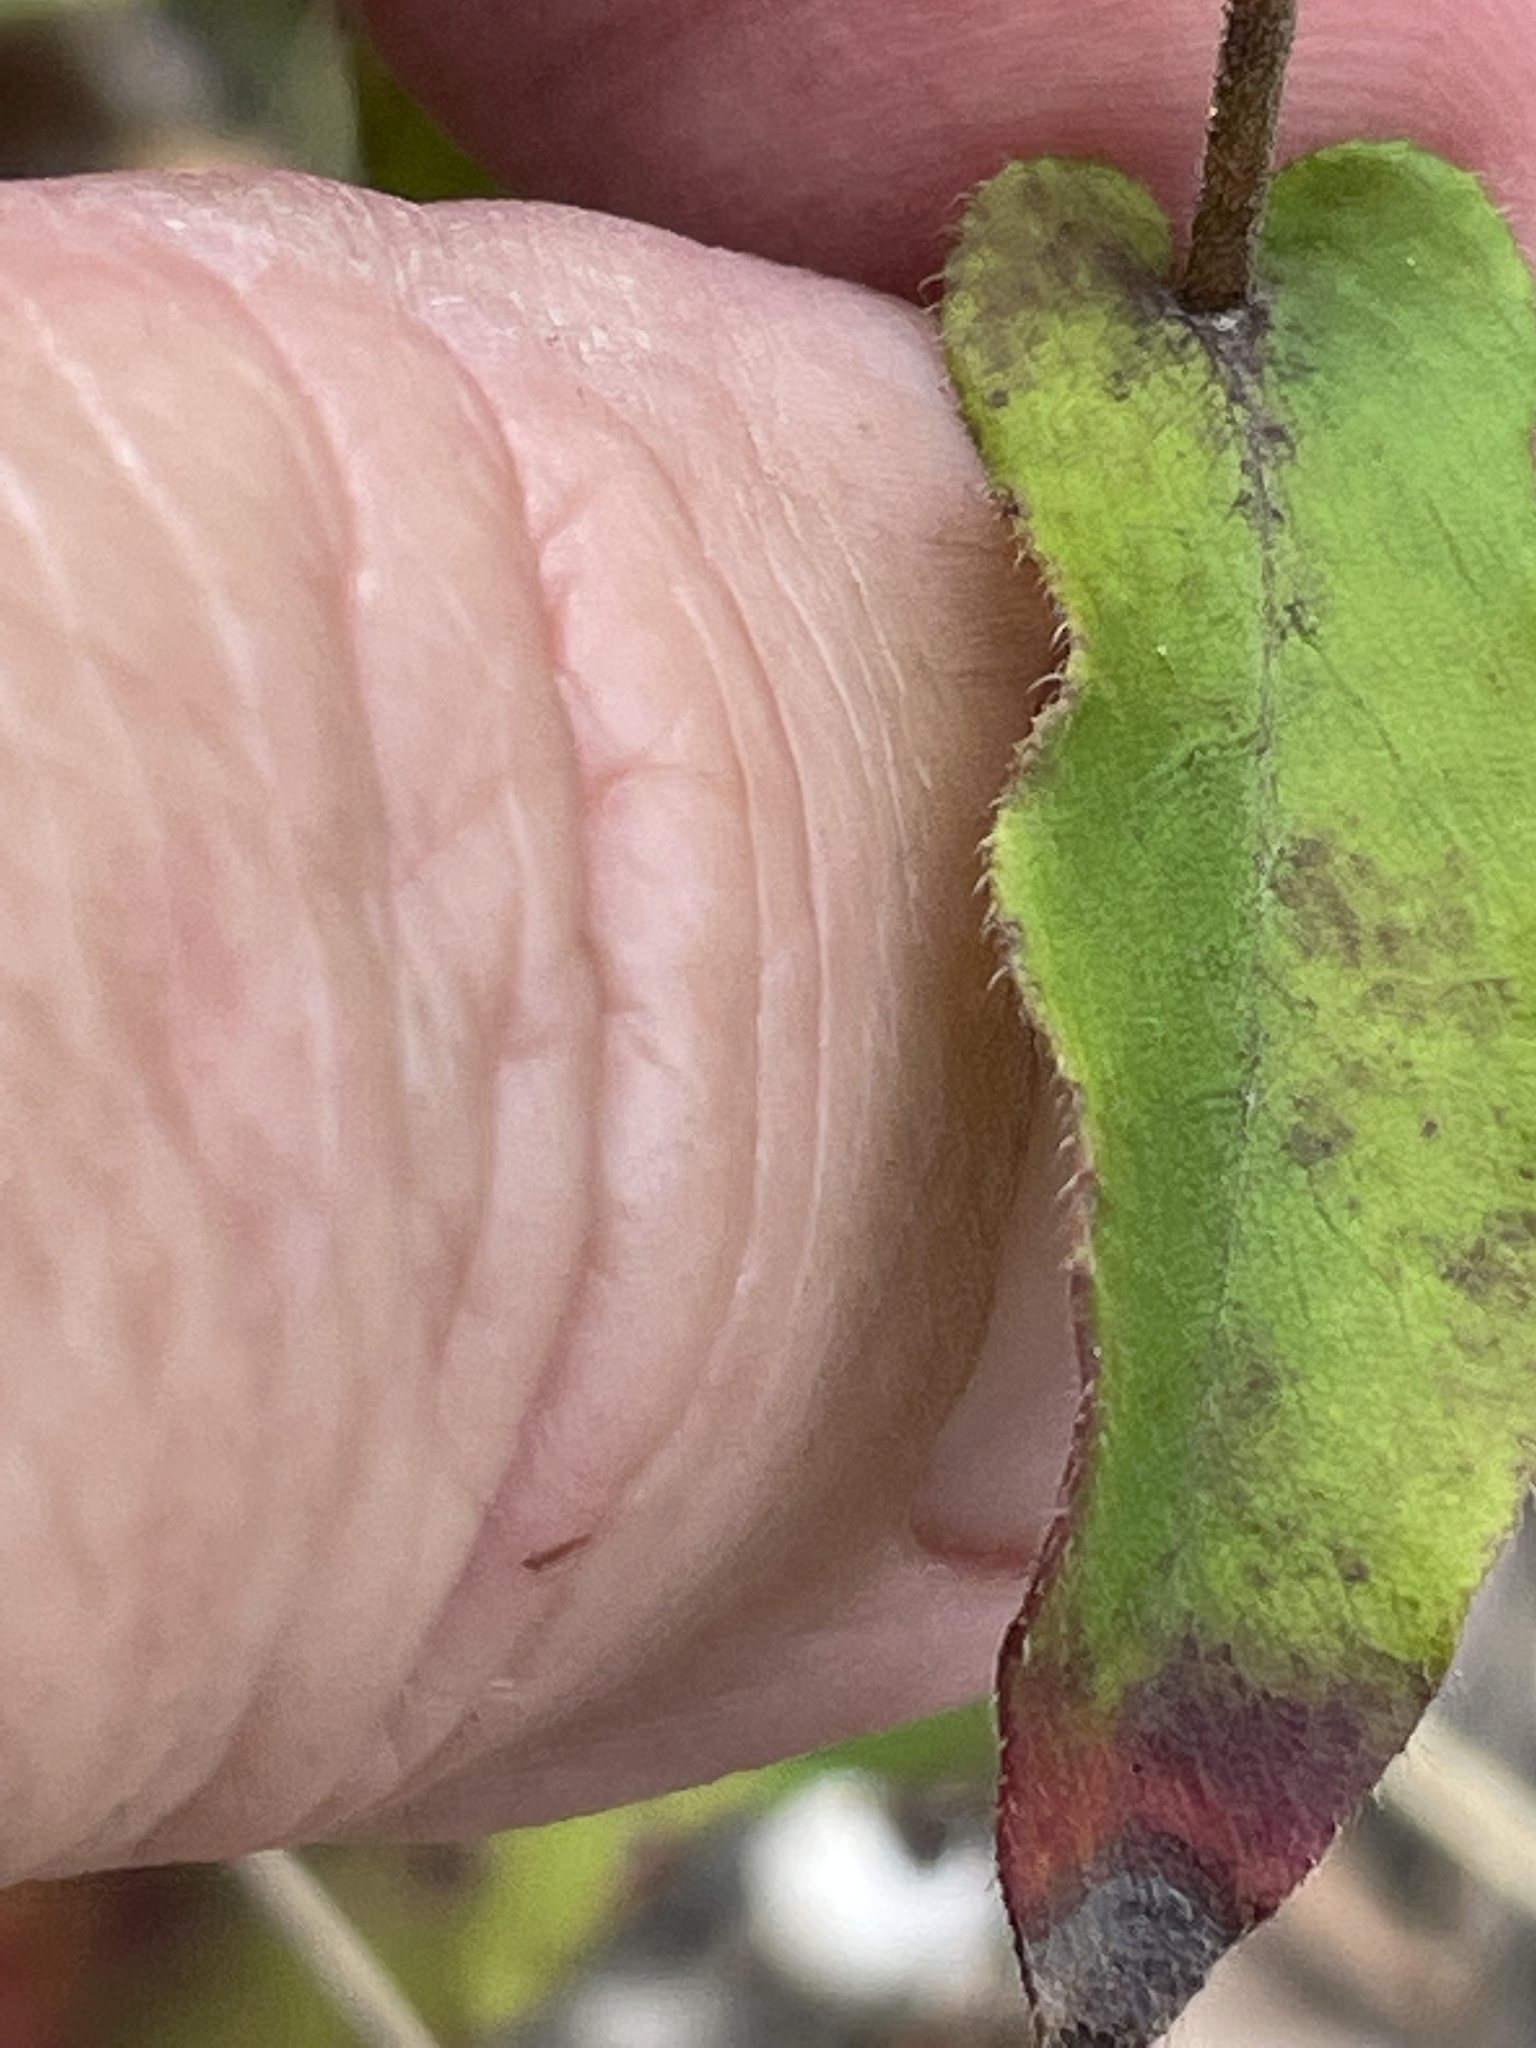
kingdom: Plantae
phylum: Tracheophyta
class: Magnoliopsida
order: Asterales
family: Asteraceae
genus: Symphyotrichum
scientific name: Symphyotrichum patens
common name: Late purple aster
